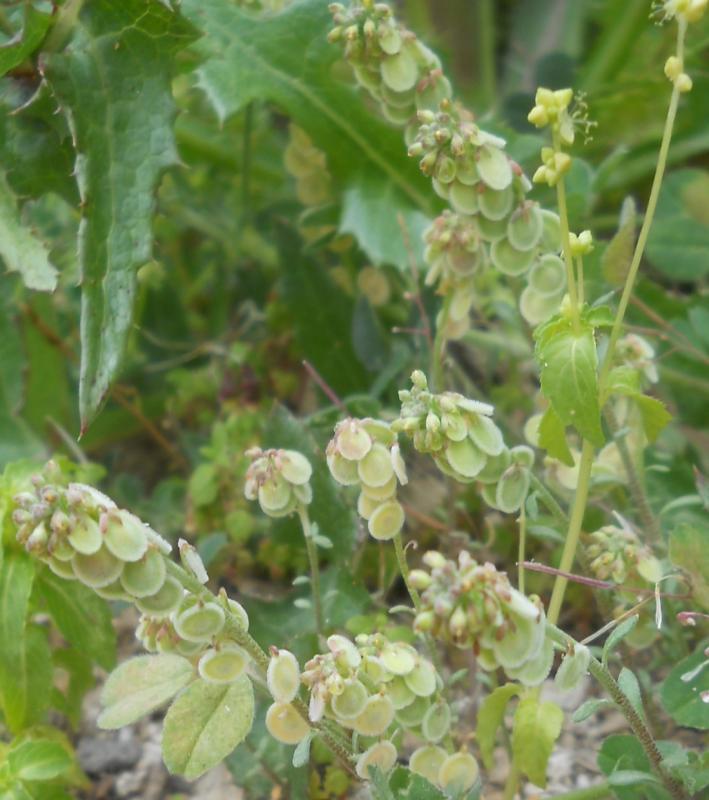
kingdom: Plantae
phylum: Tracheophyta
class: Magnoliopsida
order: Brassicales
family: Brassicaceae
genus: Clypeola
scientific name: Clypeola jonthlaspi
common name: Disk cress
